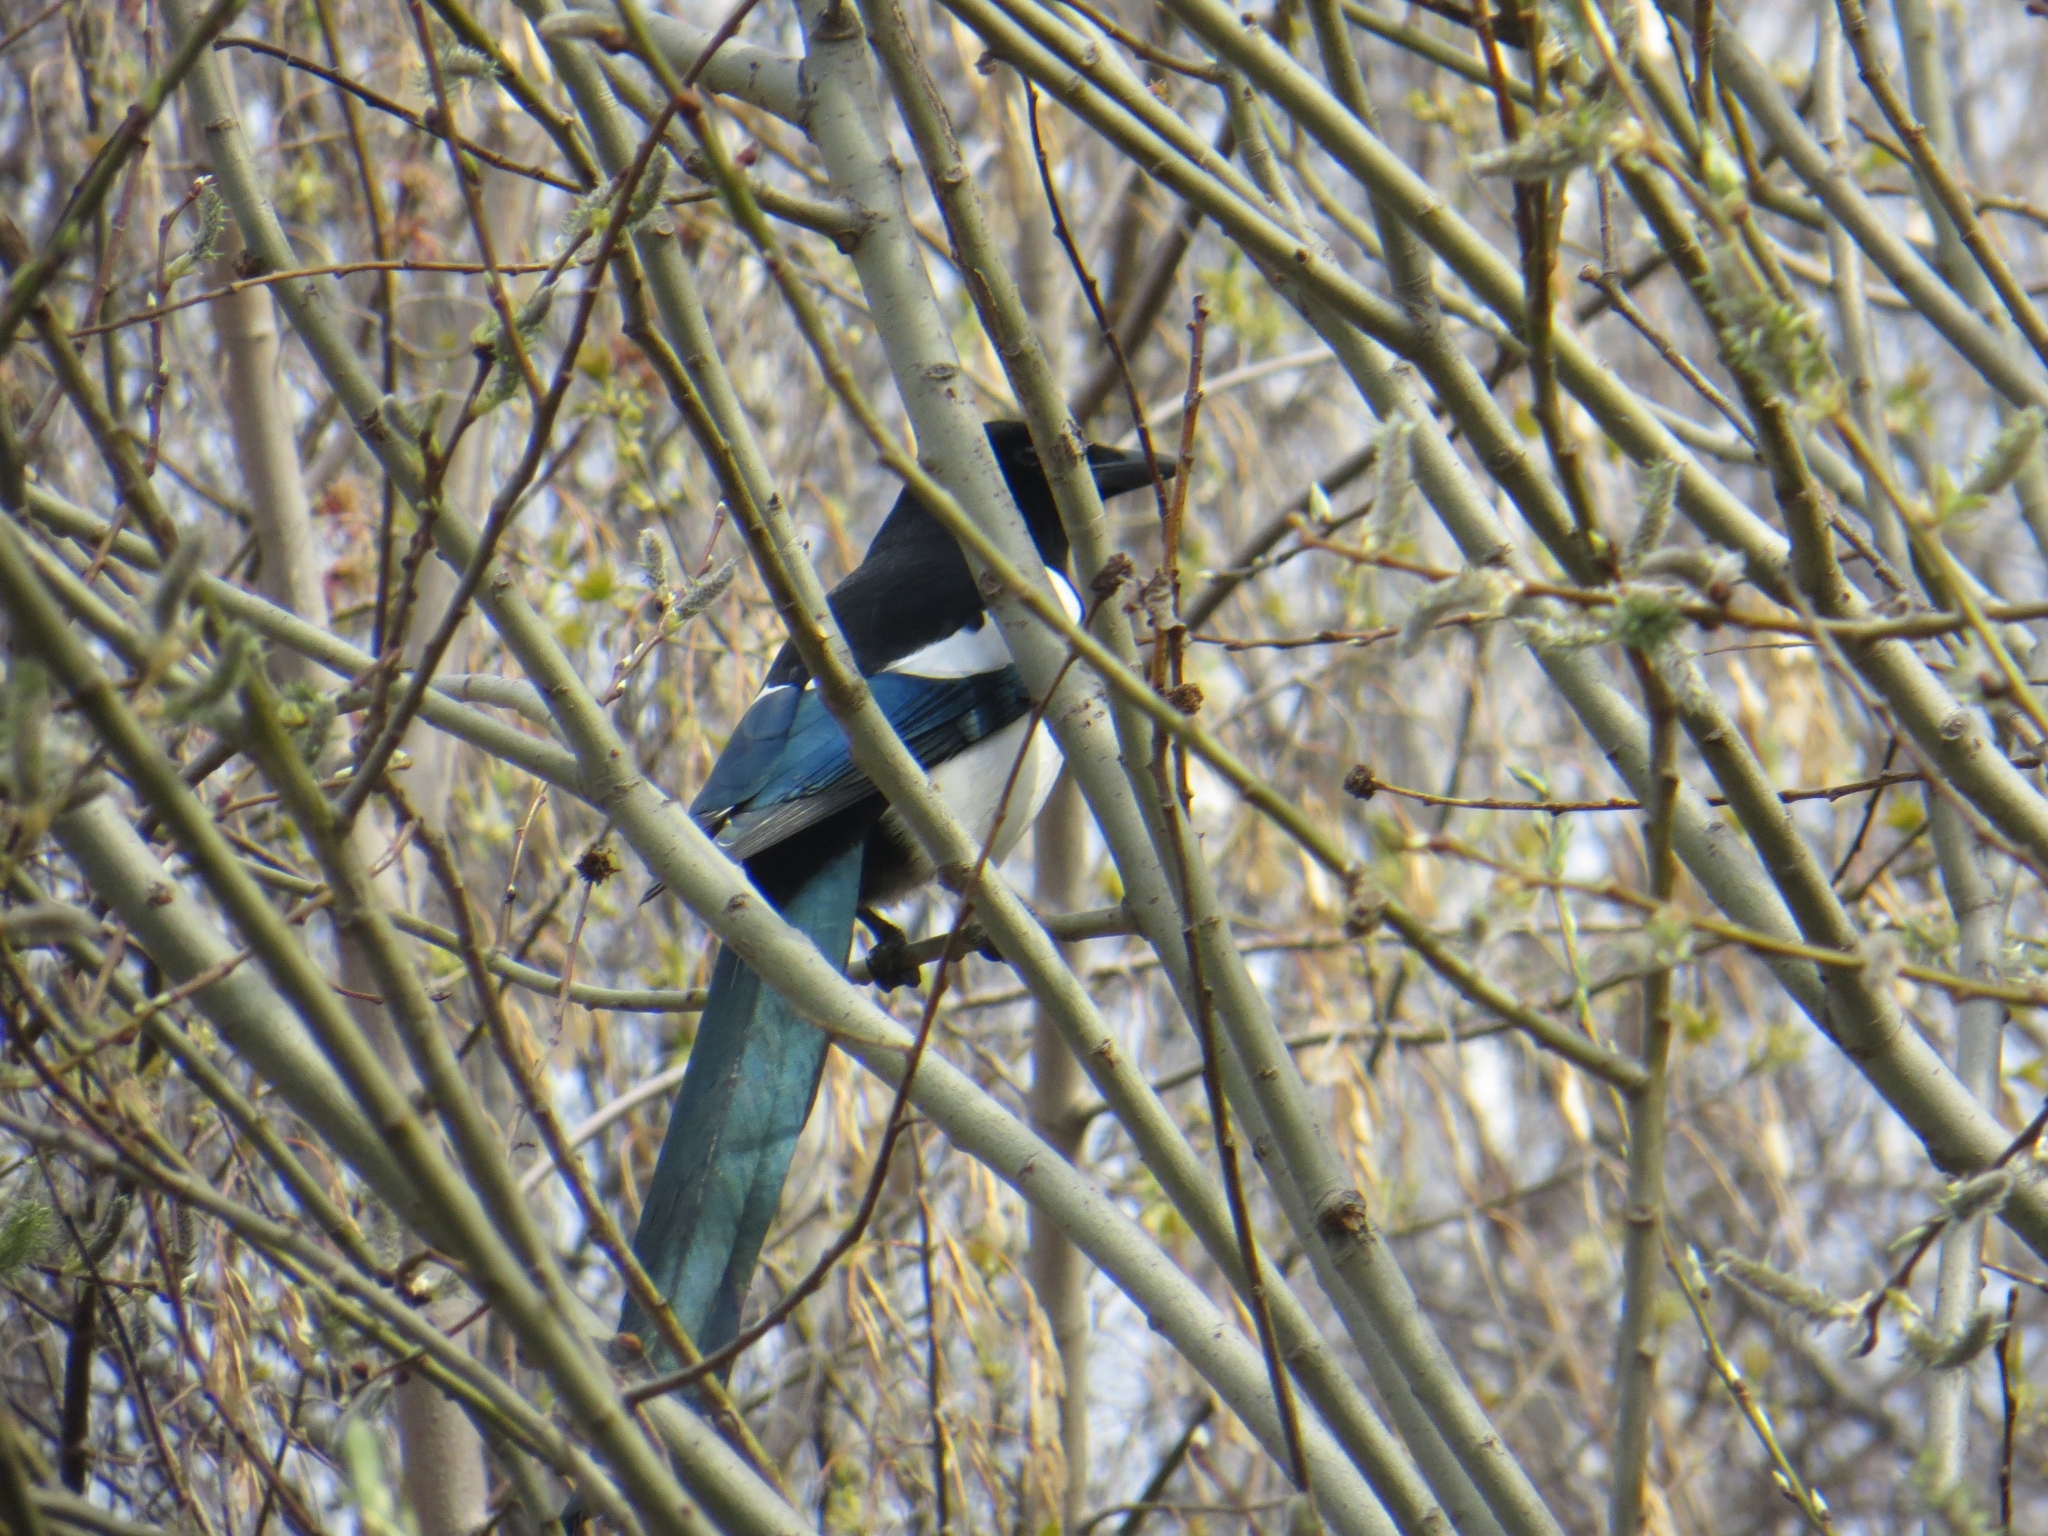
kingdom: Animalia
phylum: Chordata
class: Aves
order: Passeriformes
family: Corvidae
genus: Pica
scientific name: Pica pica
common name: Eurasian magpie
